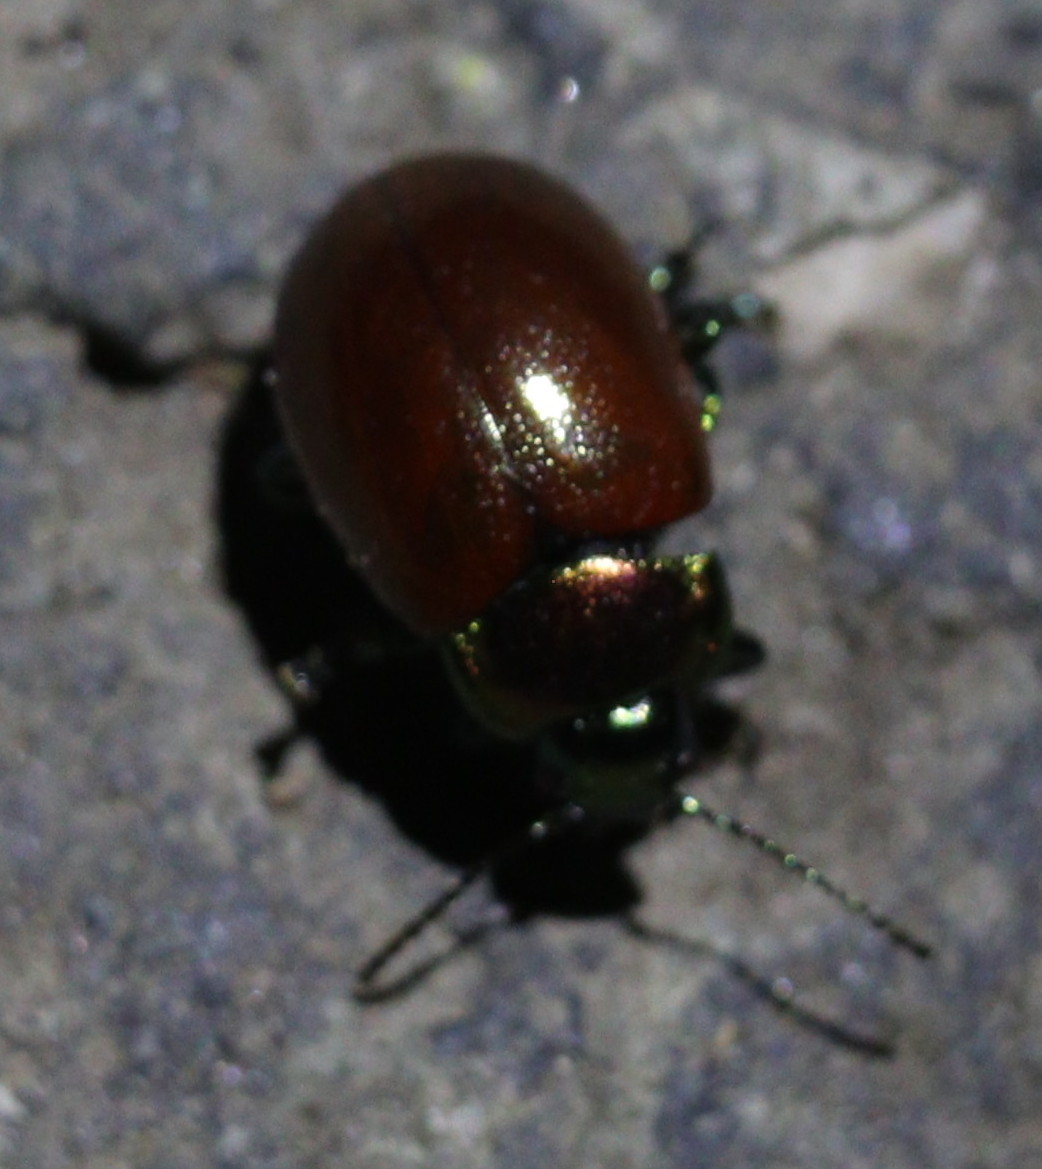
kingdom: Animalia
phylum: Arthropoda
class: Insecta
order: Coleoptera
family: Chrysomelidae
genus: Chrysomela
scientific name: Chrysomela polita
